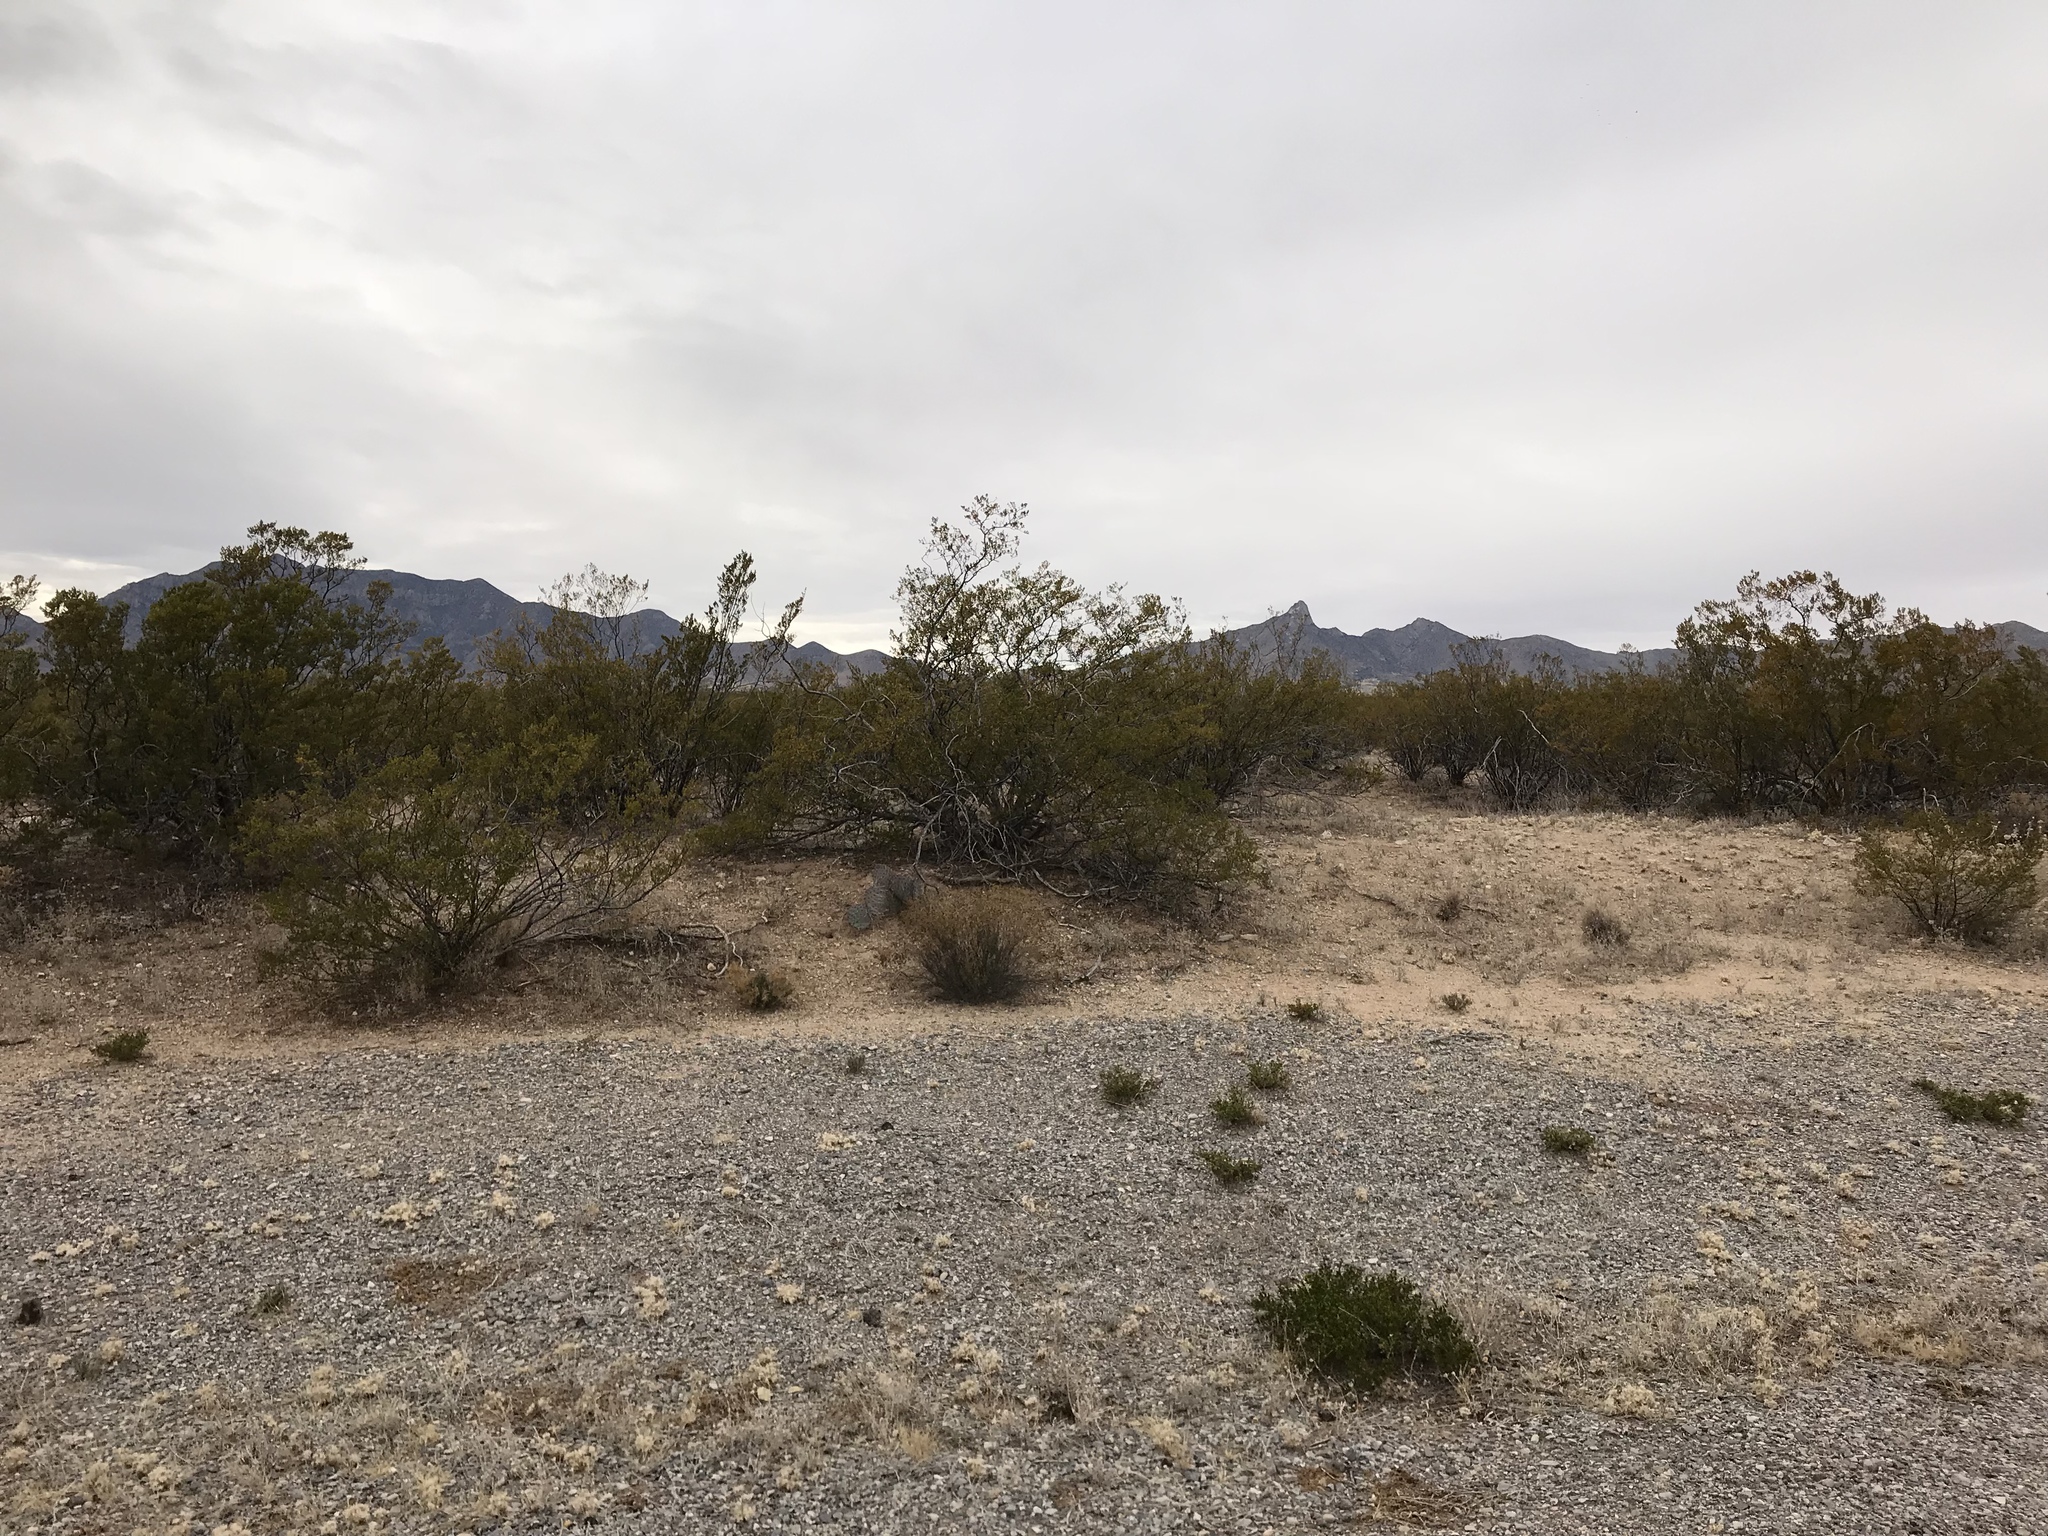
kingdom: Plantae
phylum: Tracheophyta
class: Magnoliopsida
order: Zygophyllales
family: Zygophyllaceae
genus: Larrea
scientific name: Larrea tridentata
